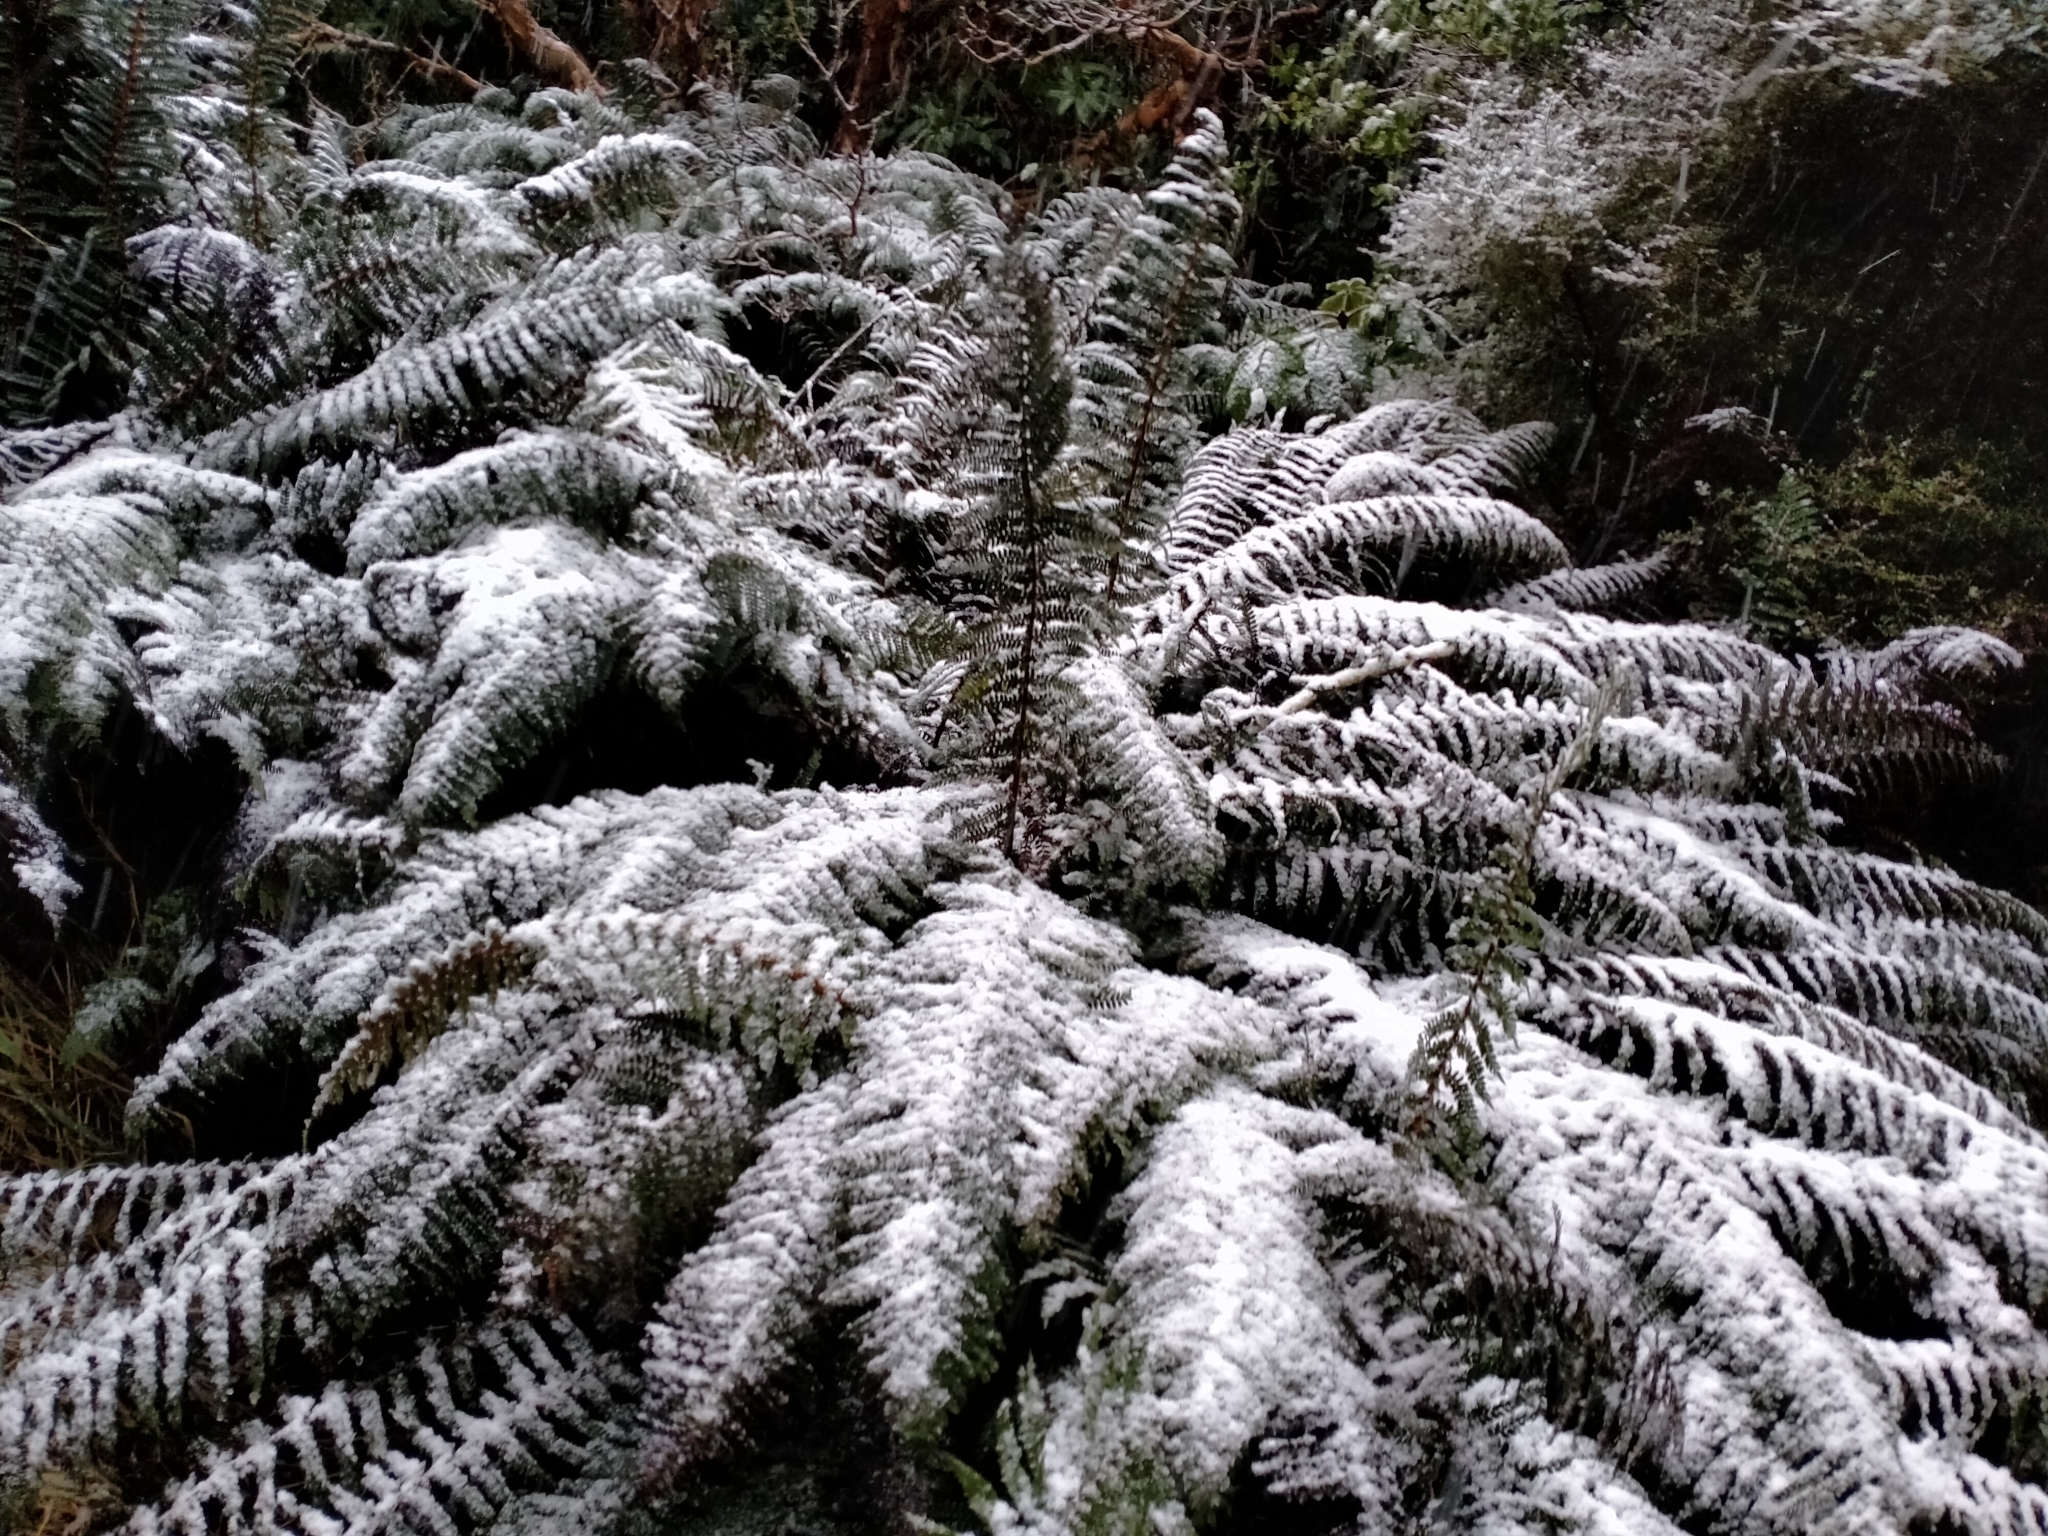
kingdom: Plantae
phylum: Tracheophyta
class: Polypodiopsida
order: Polypodiales
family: Dryopteridaceae
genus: Polystichum
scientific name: Polystichum vestitum
